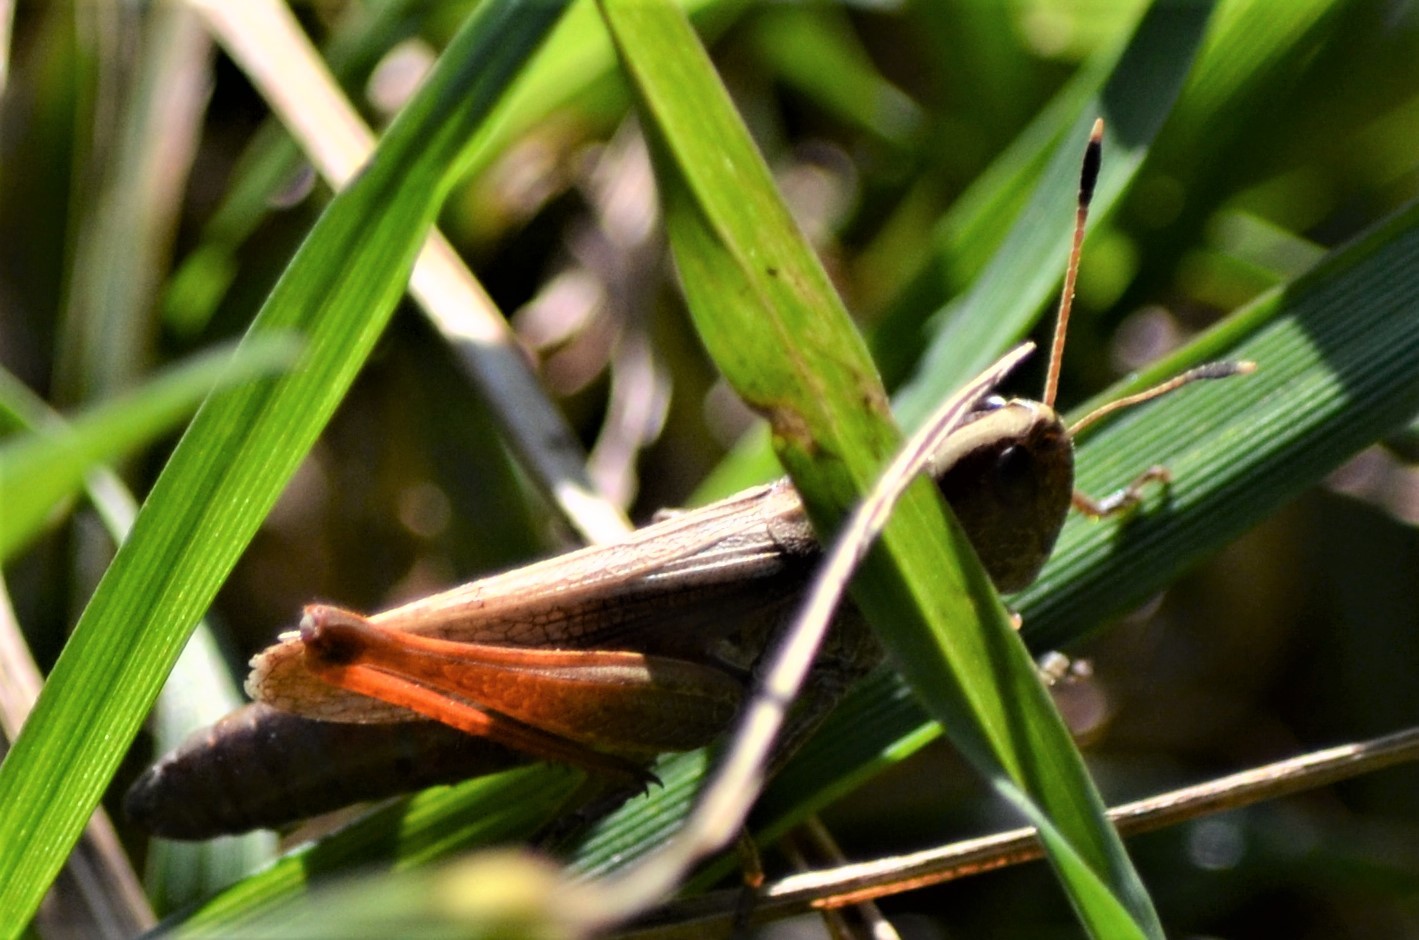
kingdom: Animalia
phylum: Arthropoda
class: Insecta
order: Orthoptera
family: Acrididae
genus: Gomphocerippus
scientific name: Gomphocerippus rufus
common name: Rufous grasshopper
